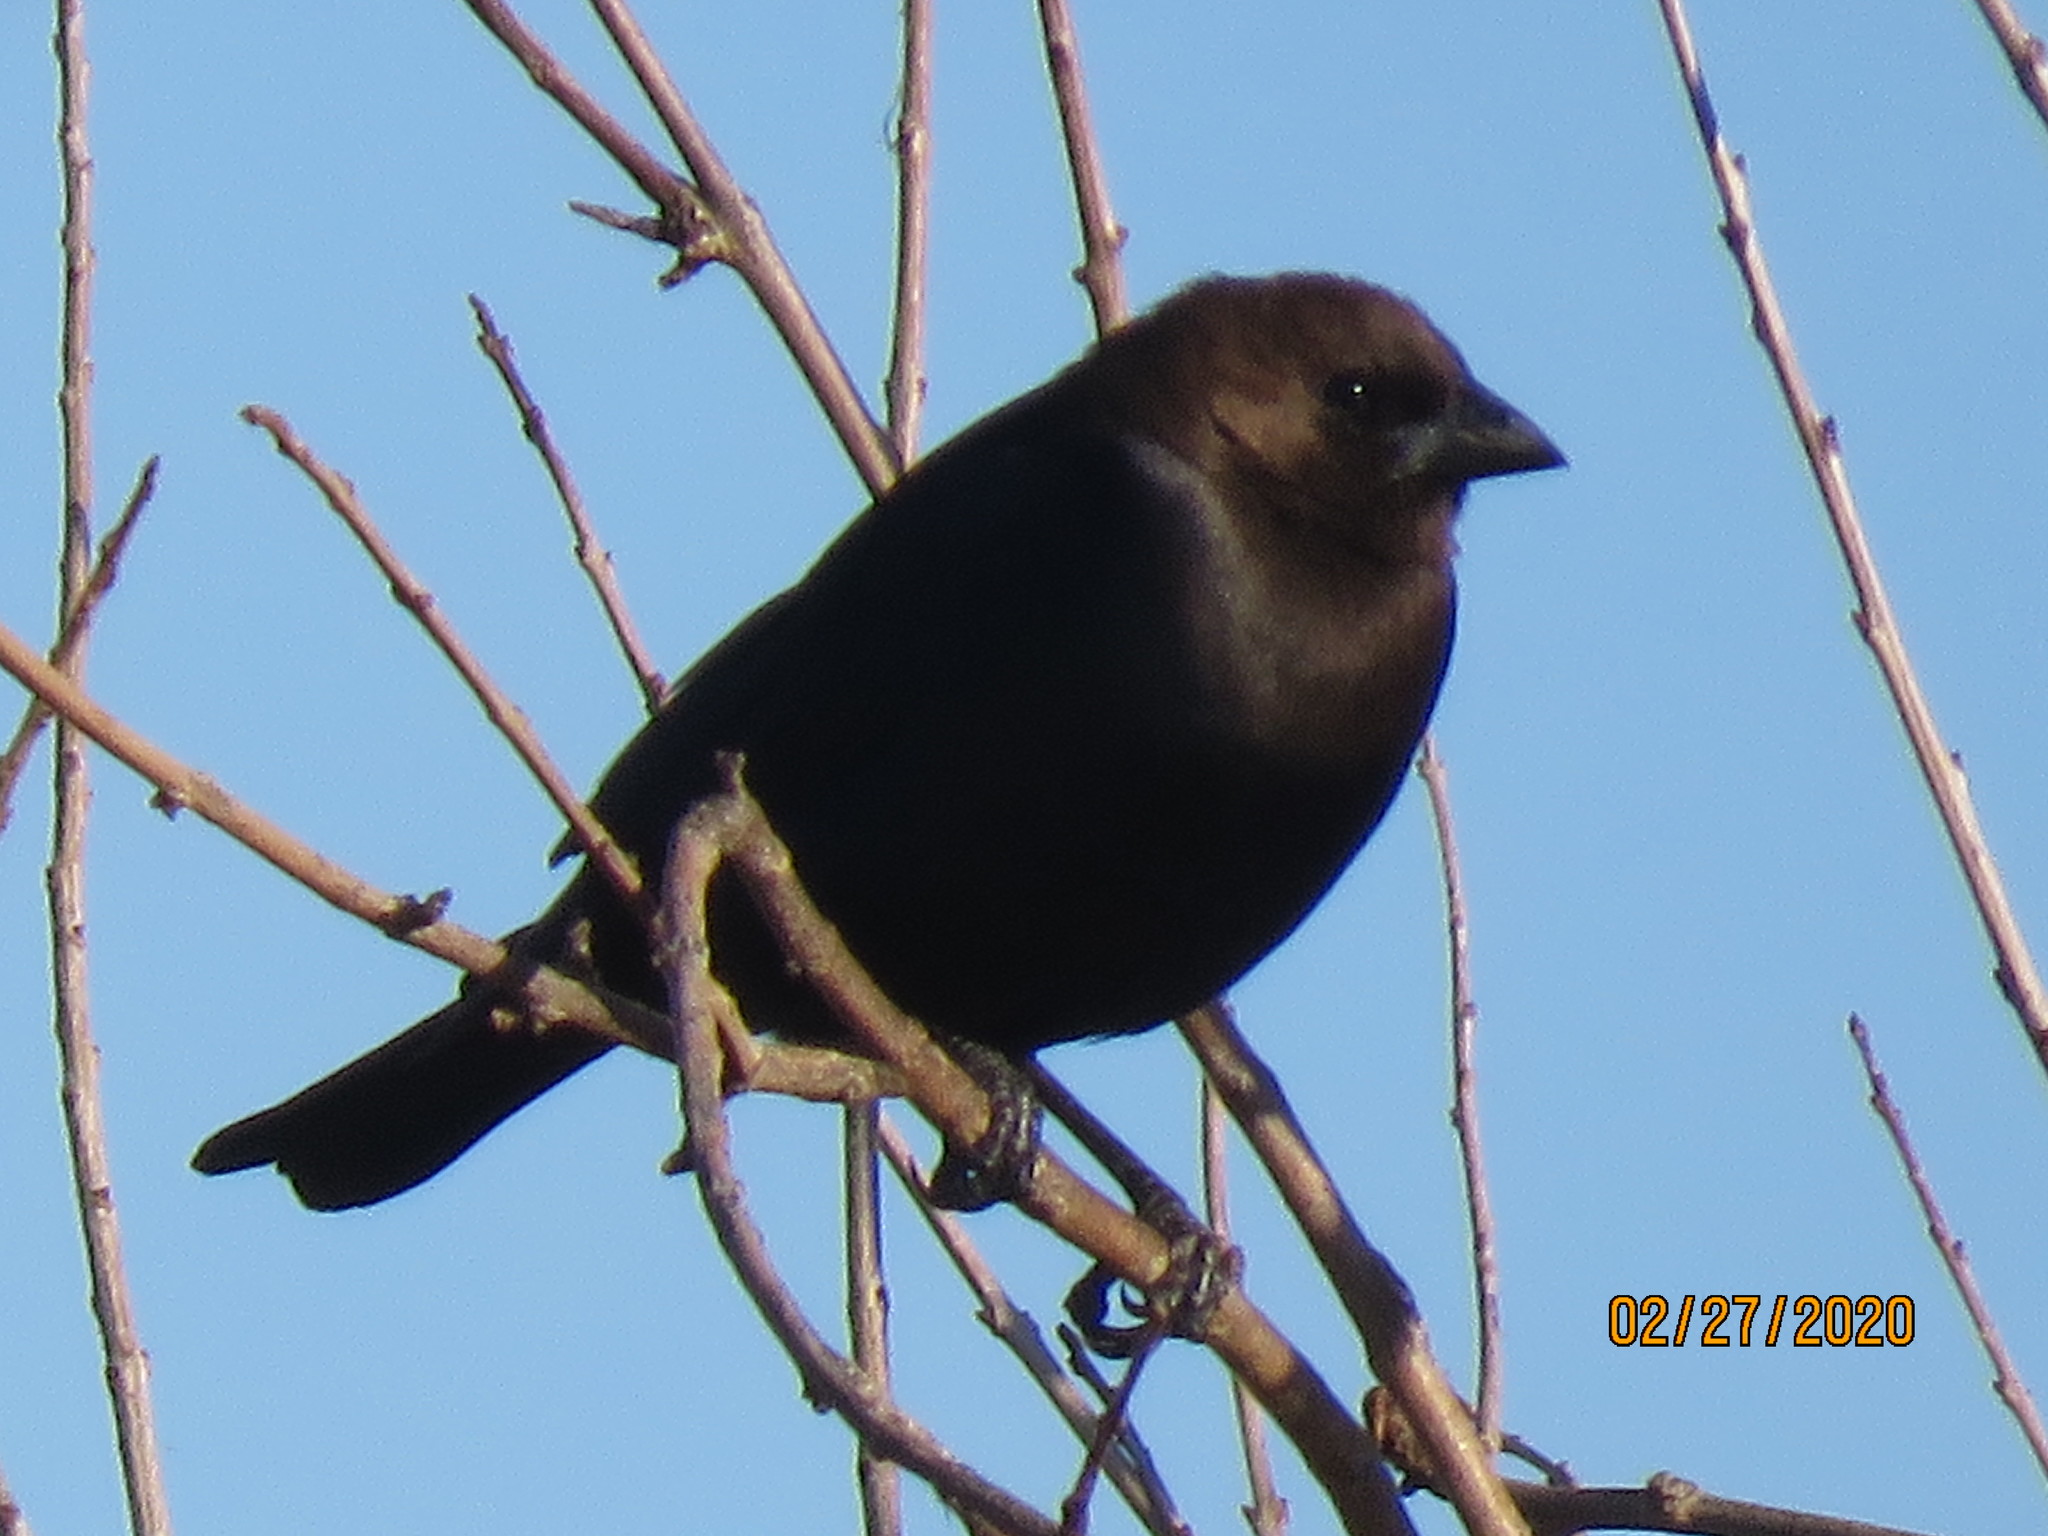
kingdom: Animalia
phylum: Chordata
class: Aves
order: Passeriformes
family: Icteridae
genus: Molothrus
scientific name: Molothrus ater
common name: Brown-headed cowbird
